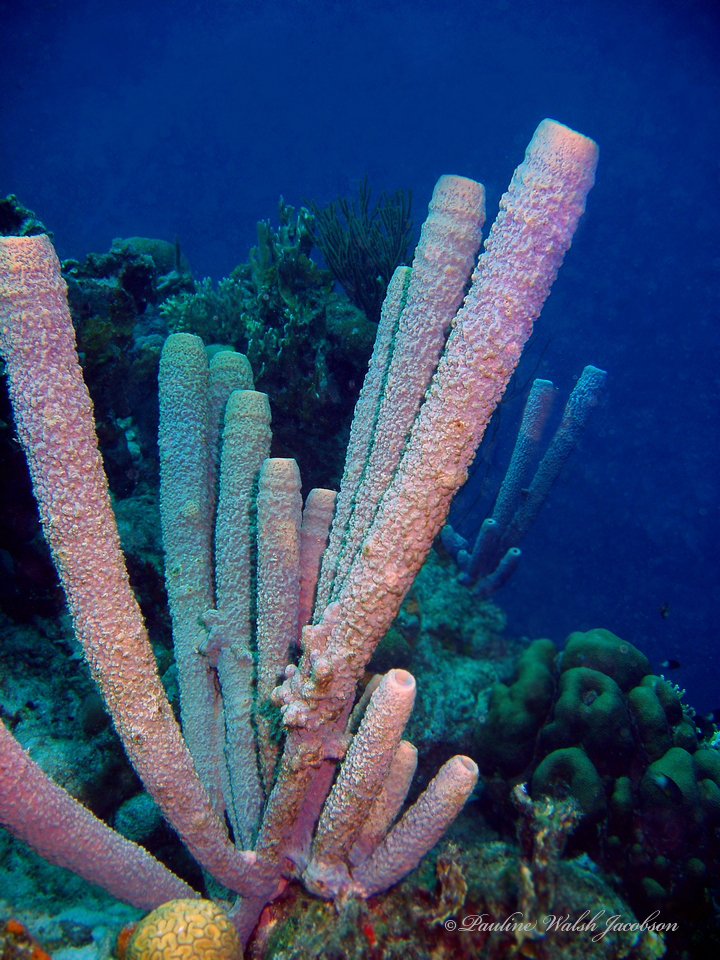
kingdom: Animalia
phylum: Porifera
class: Demospongiae
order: Verongiida
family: Aplysinidae
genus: Aplysina
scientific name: Aplysina archeri
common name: Stove-pipe sponge
